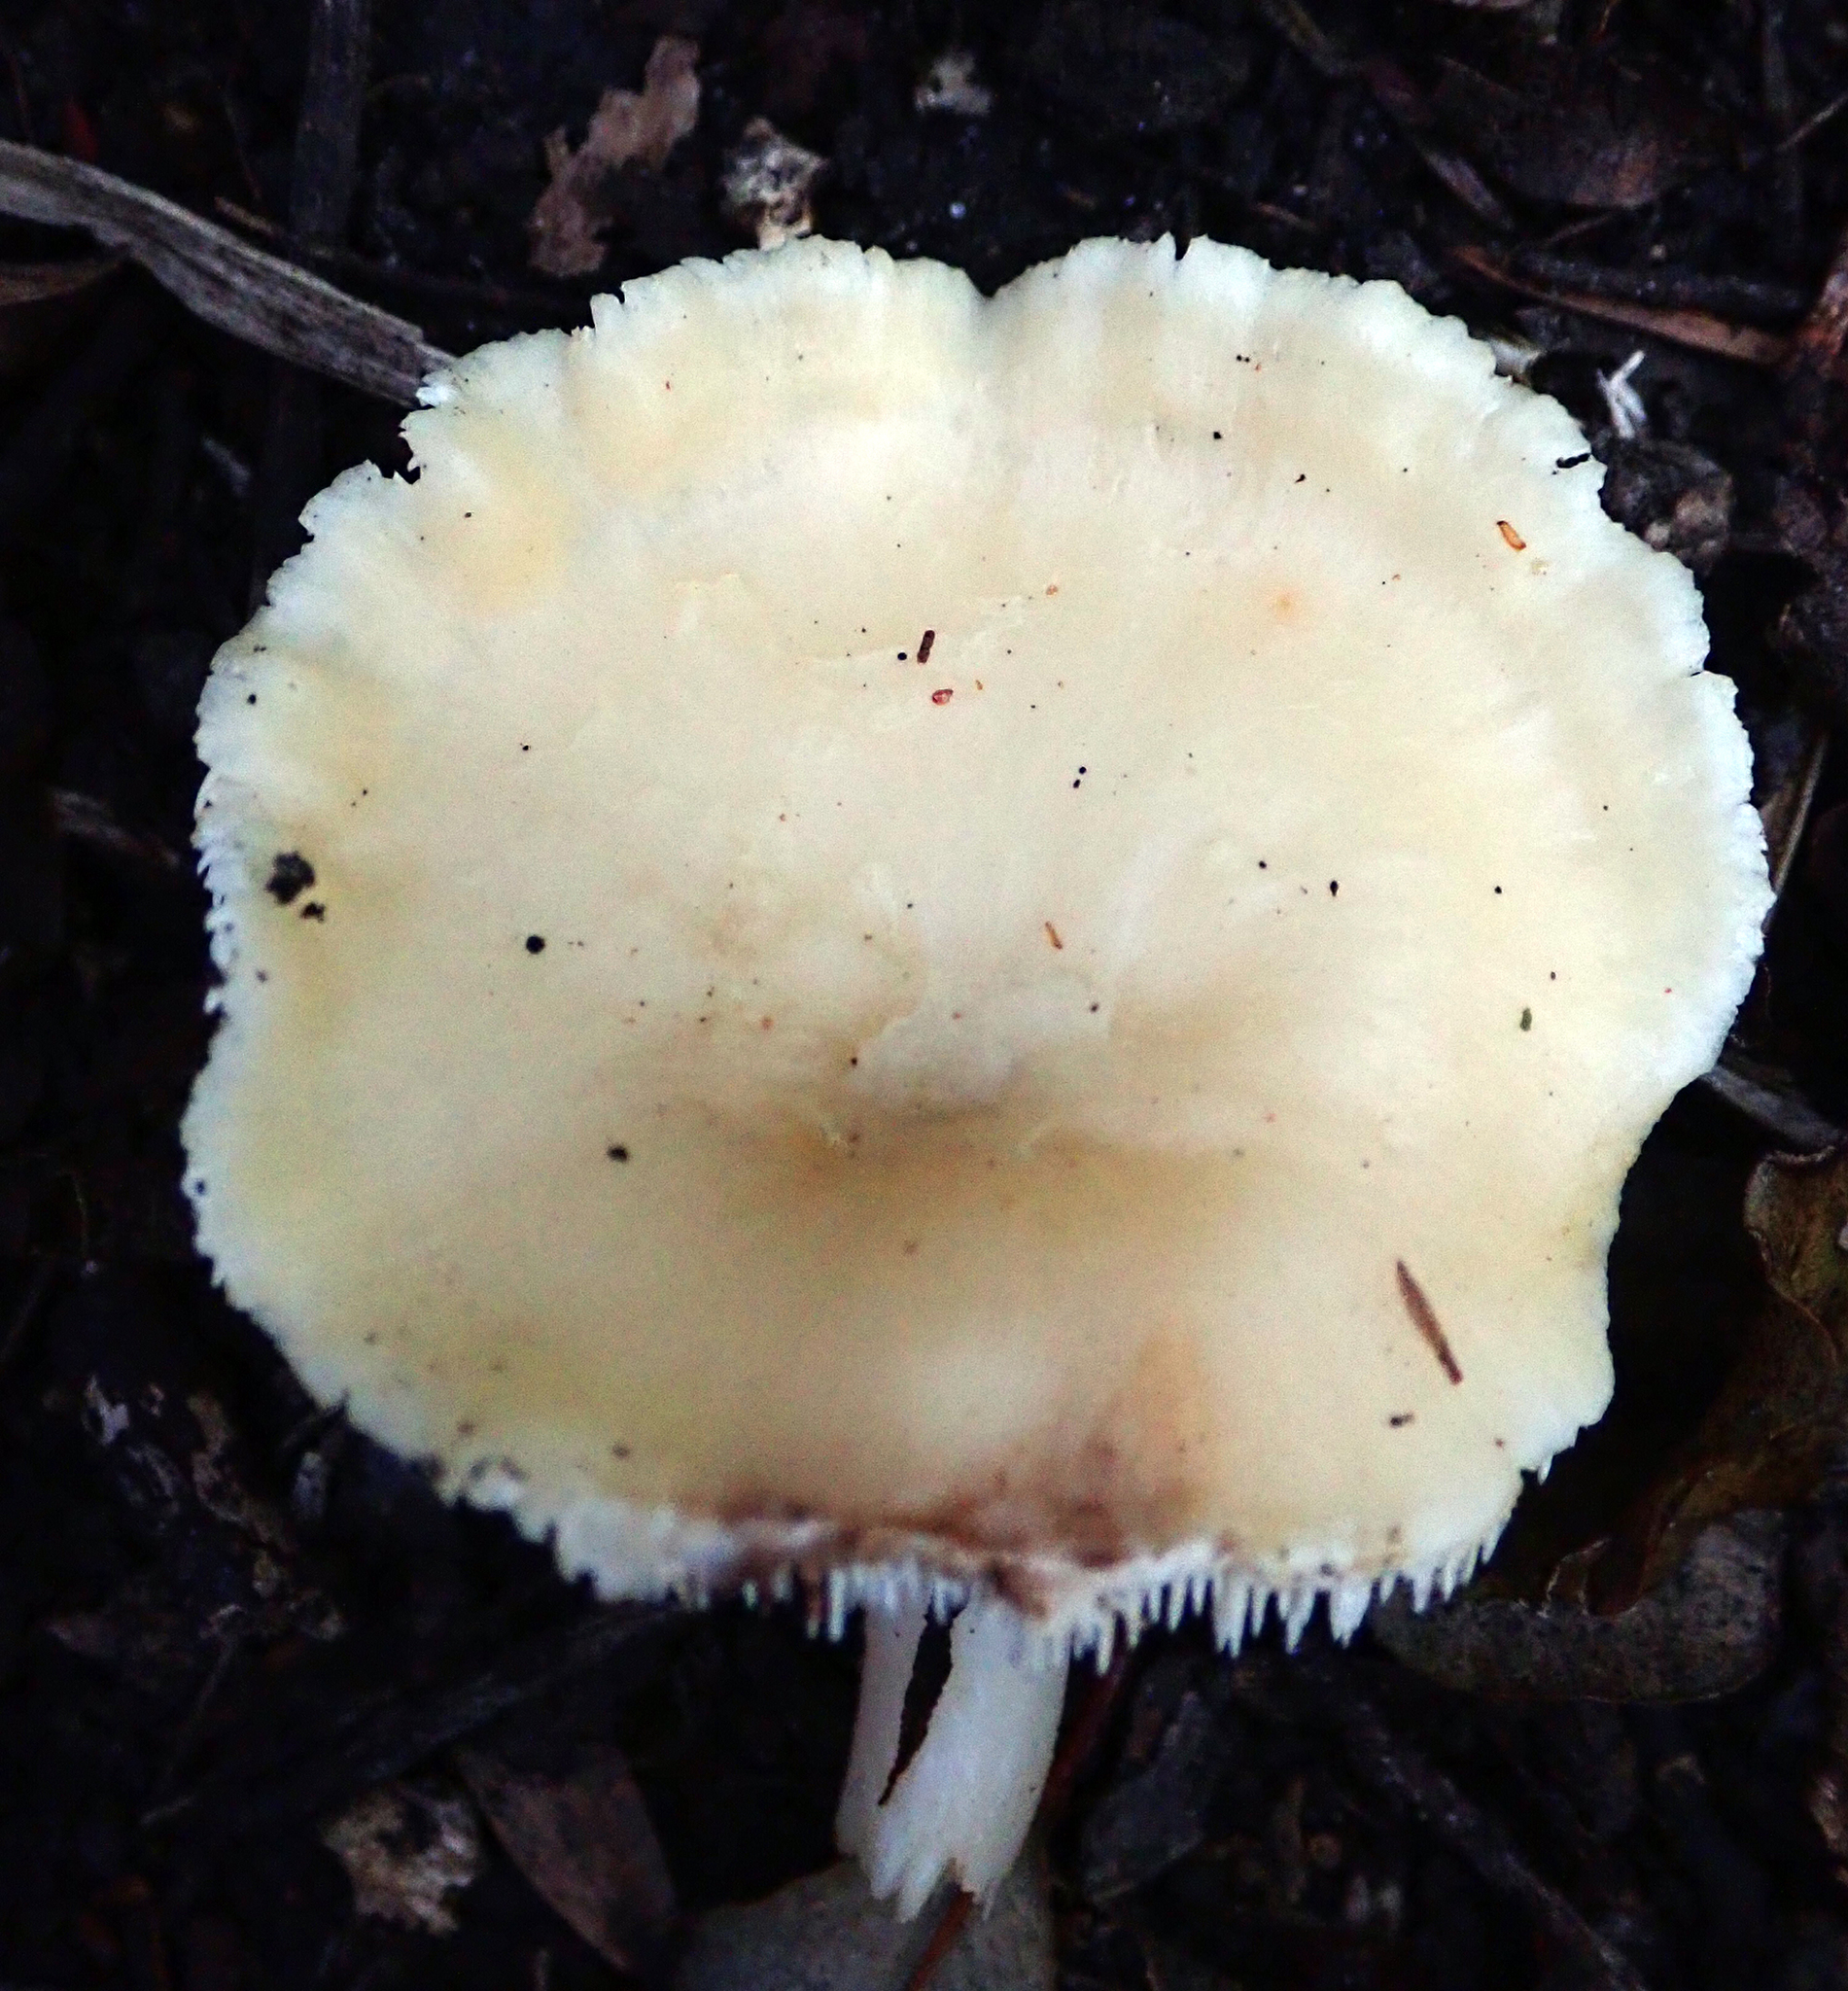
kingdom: Fungi
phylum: Basidiomycota
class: Agaricomycetes
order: Cantharellales
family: Hydnaceae
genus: Hydnum
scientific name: Hydnum ambustum
